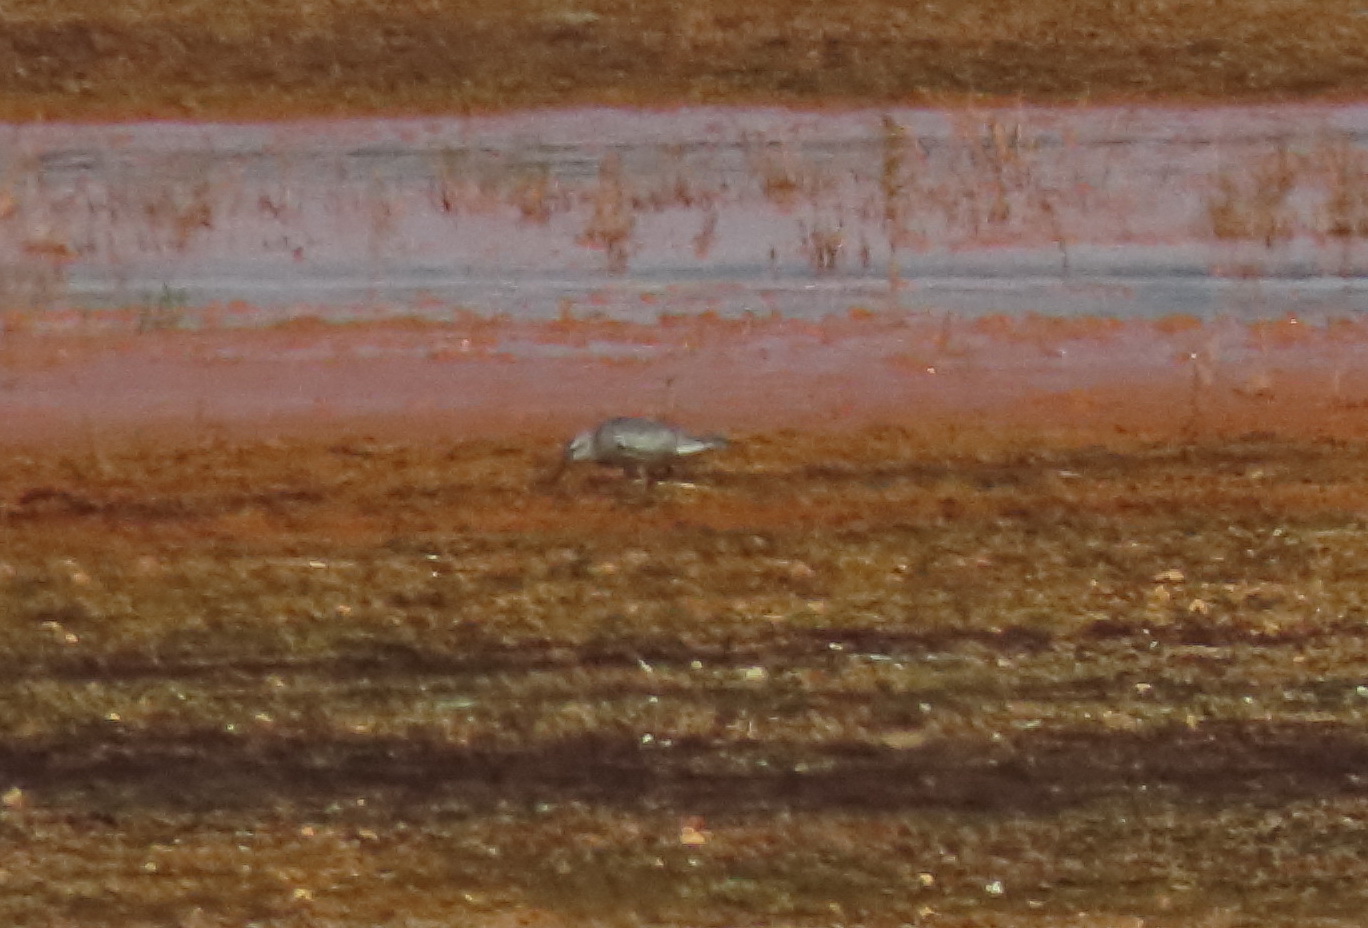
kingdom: Animalia
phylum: Chordata
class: Aves
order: Charadriiformes
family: Scolopacidae
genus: Calidris
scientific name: Calidris canutus
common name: Red knot
